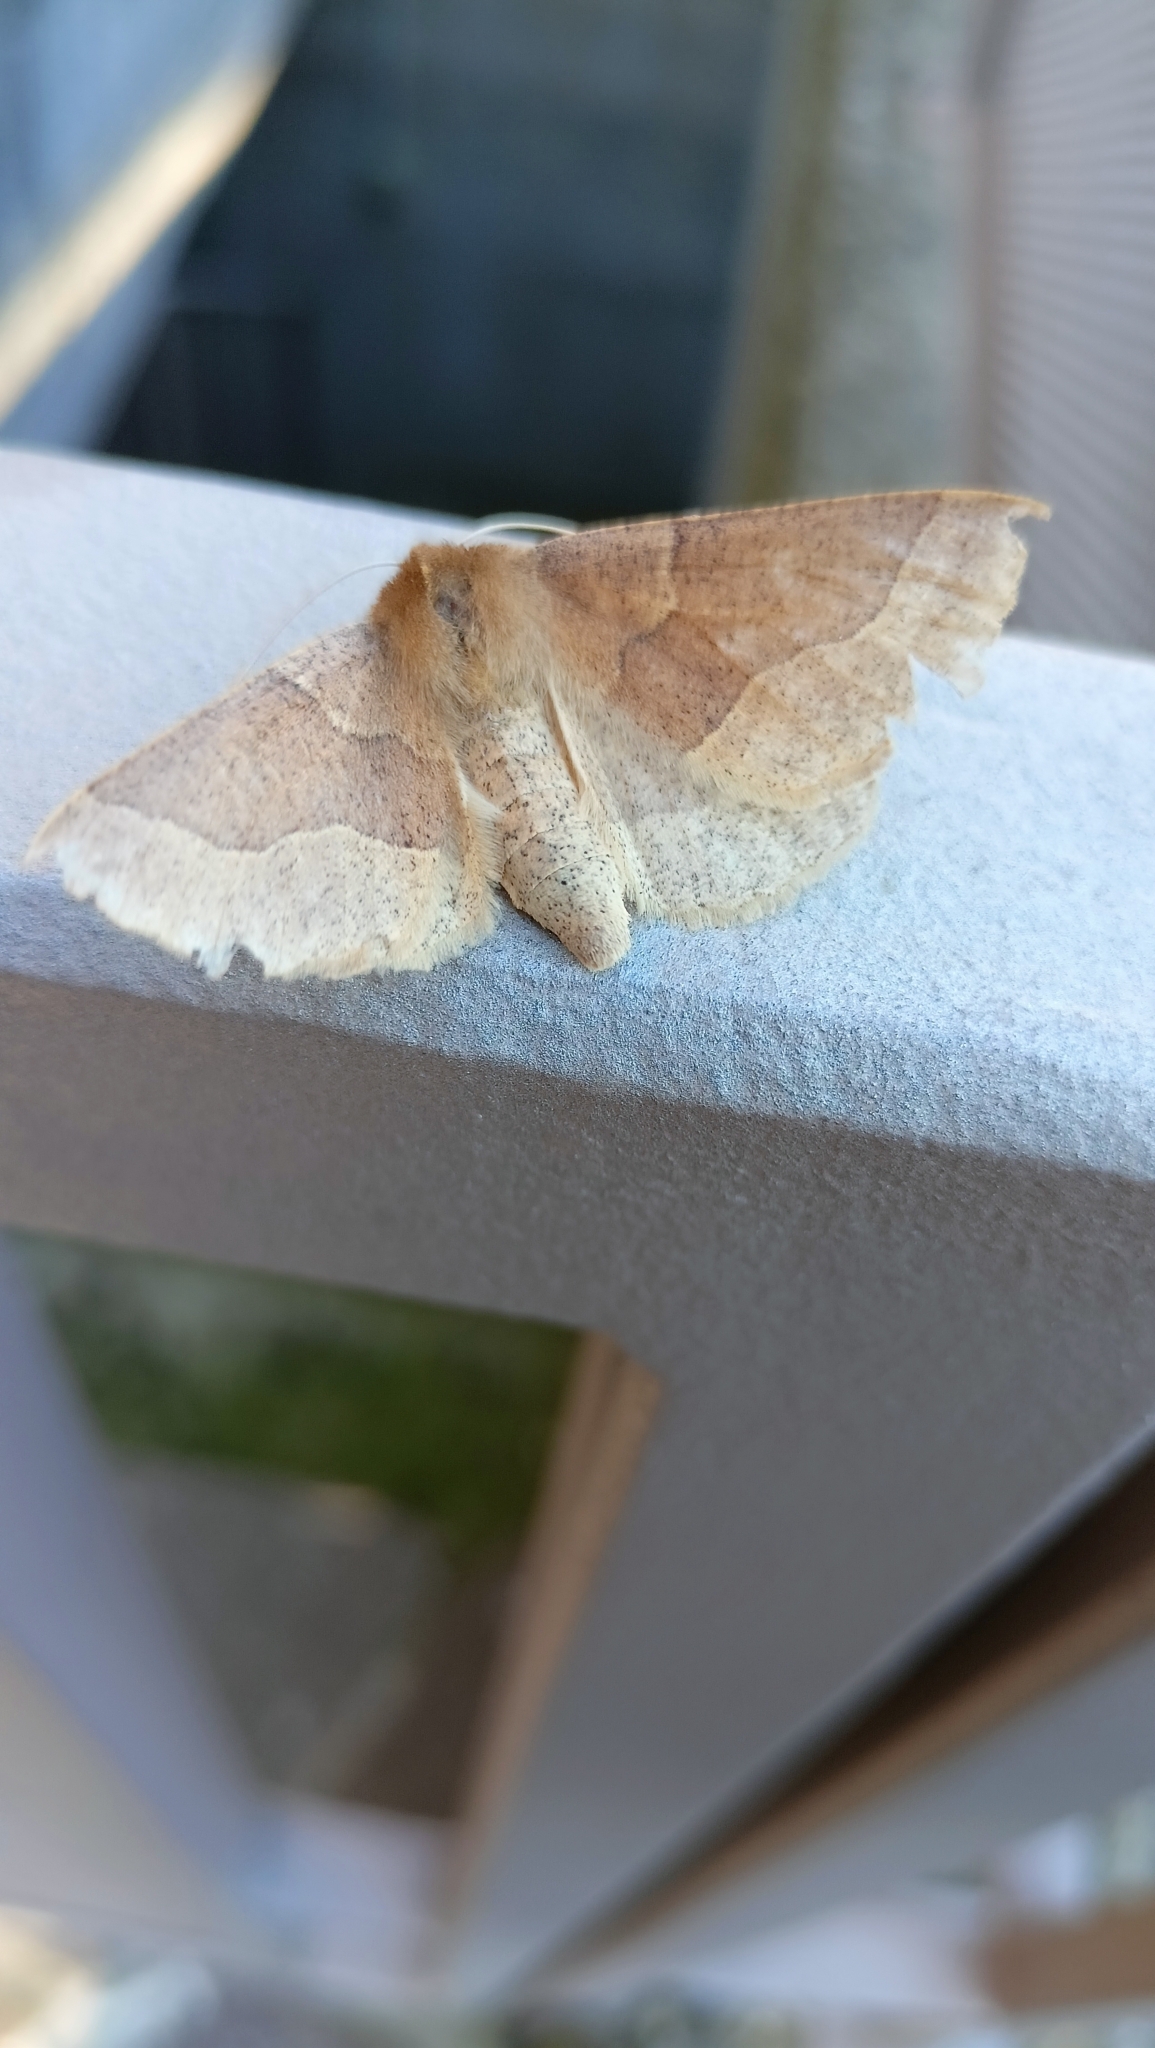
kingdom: Animalia
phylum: Arthropoda
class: Insecta
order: Lepidoptera
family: Geometridae
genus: Crocallis
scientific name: Crocallis tusciaria
